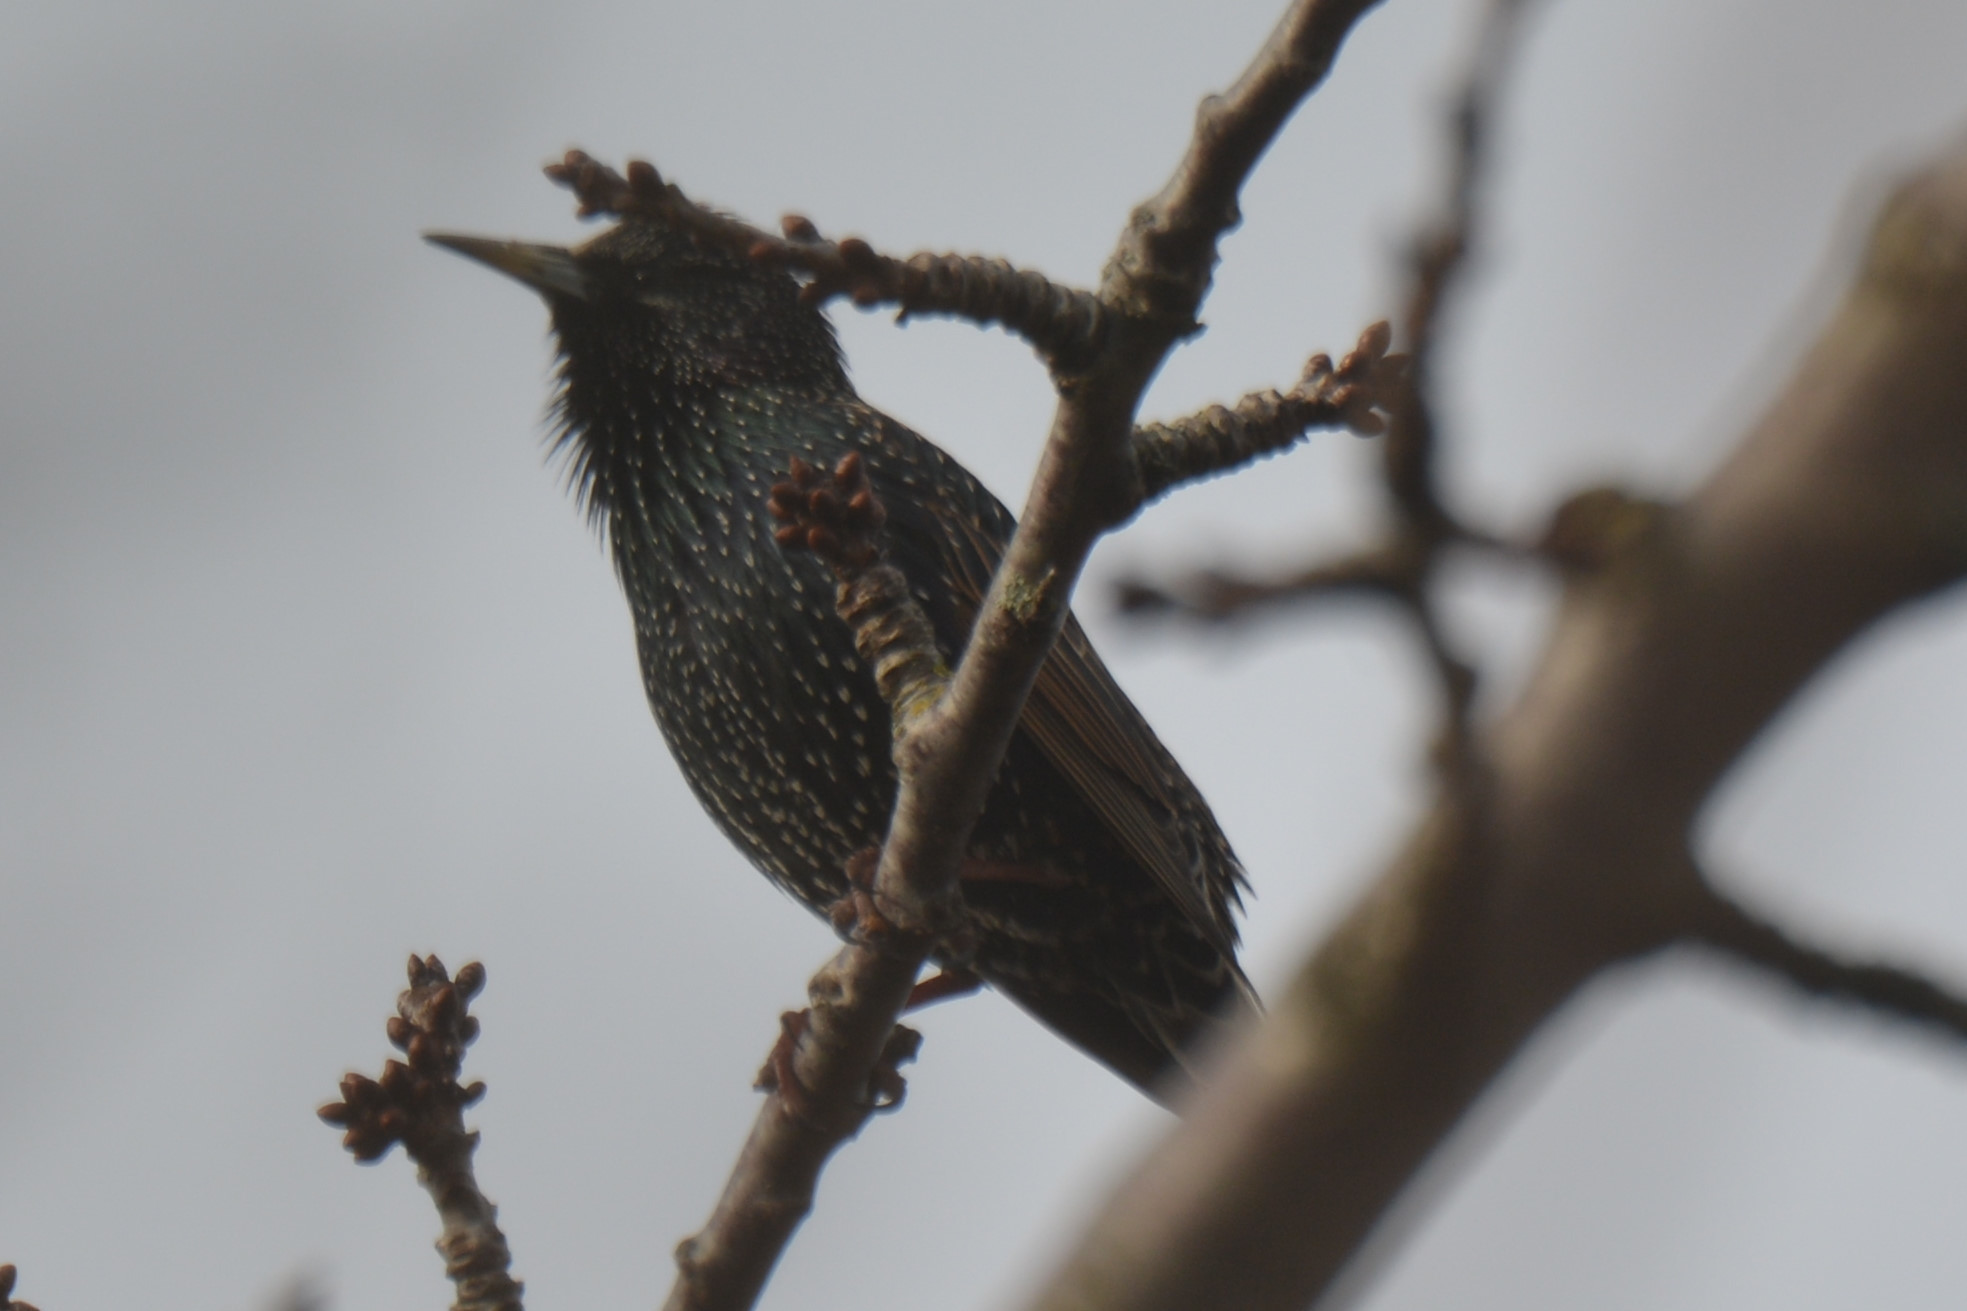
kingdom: Animalia
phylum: Chordata
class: Aves
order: Passeriformes
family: Sturnidae
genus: Sturnus
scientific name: Sturnus vulgaris
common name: Common starling
